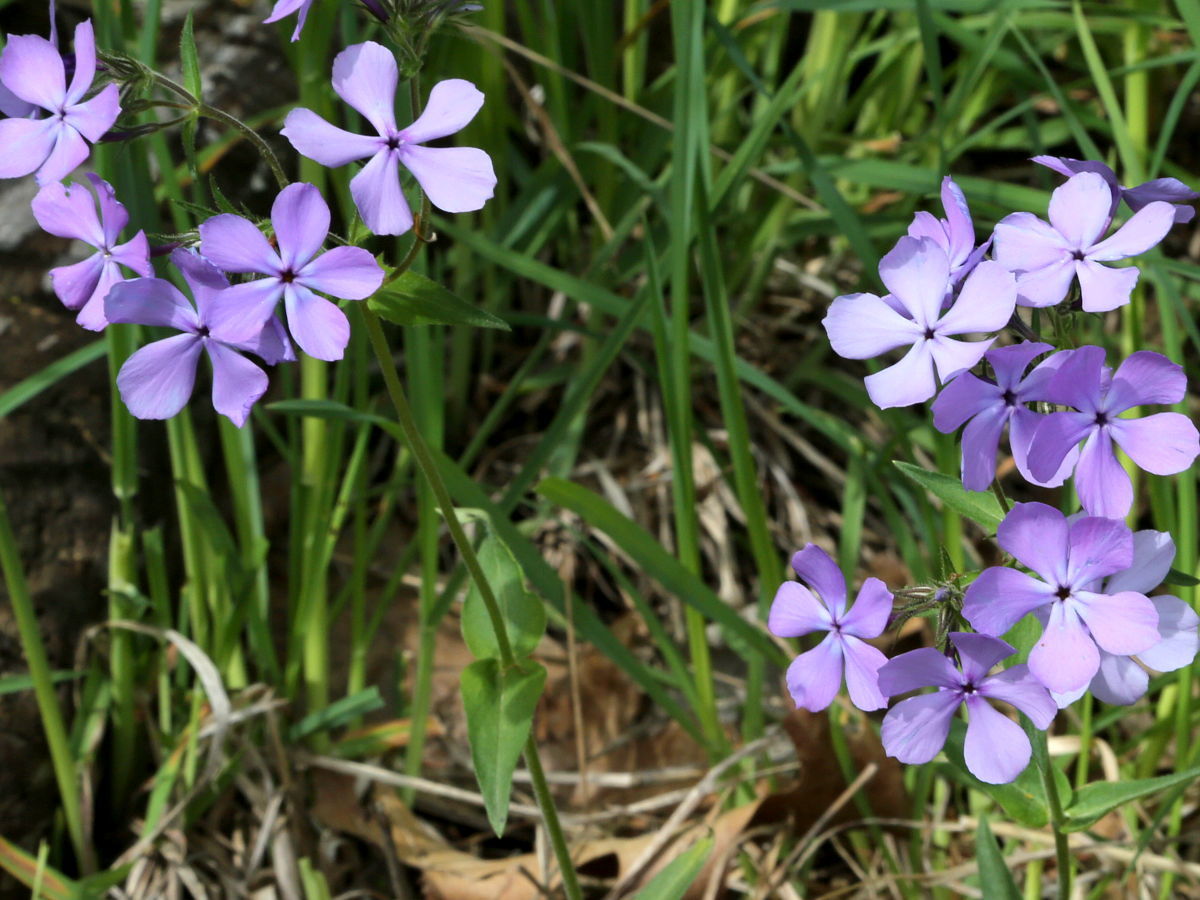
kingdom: Plantae
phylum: Tracheophyta
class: Magnoliopsida
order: Ericales
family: Polemoniaceae
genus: Phlox
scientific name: Phlox divaricata
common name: Blue phlox
